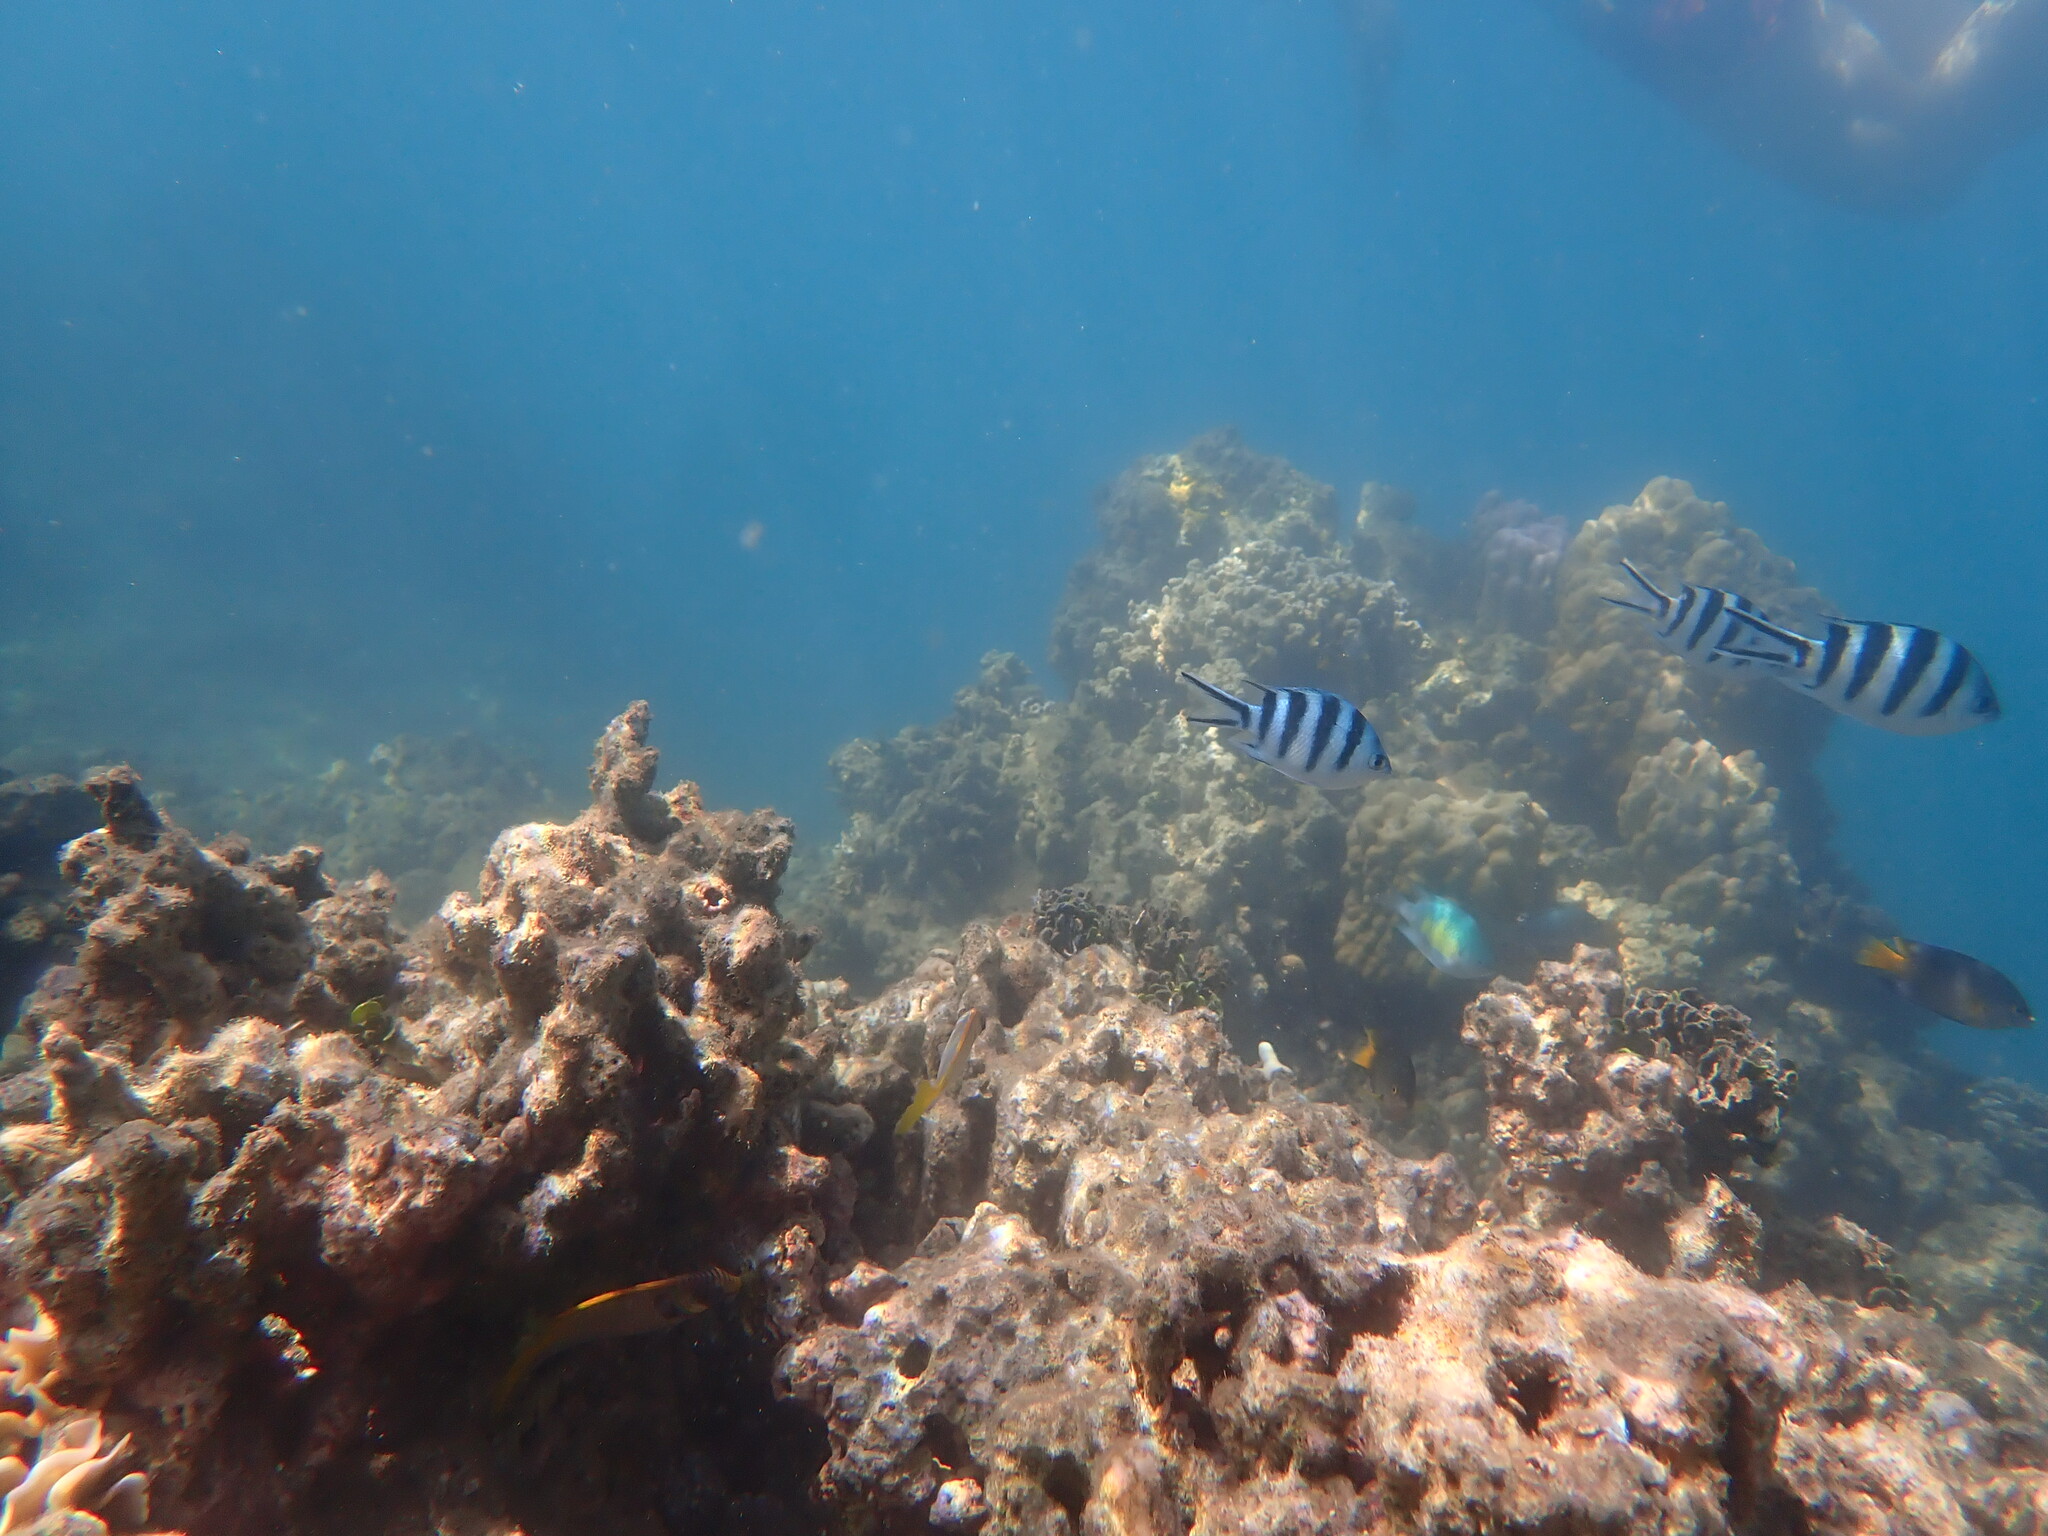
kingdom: Animalia
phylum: Chordata
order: Perciformes
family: Pomacentridae
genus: Abudefduf
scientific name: Abudefduf sexfasciatus
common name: Scissortail sergeant
